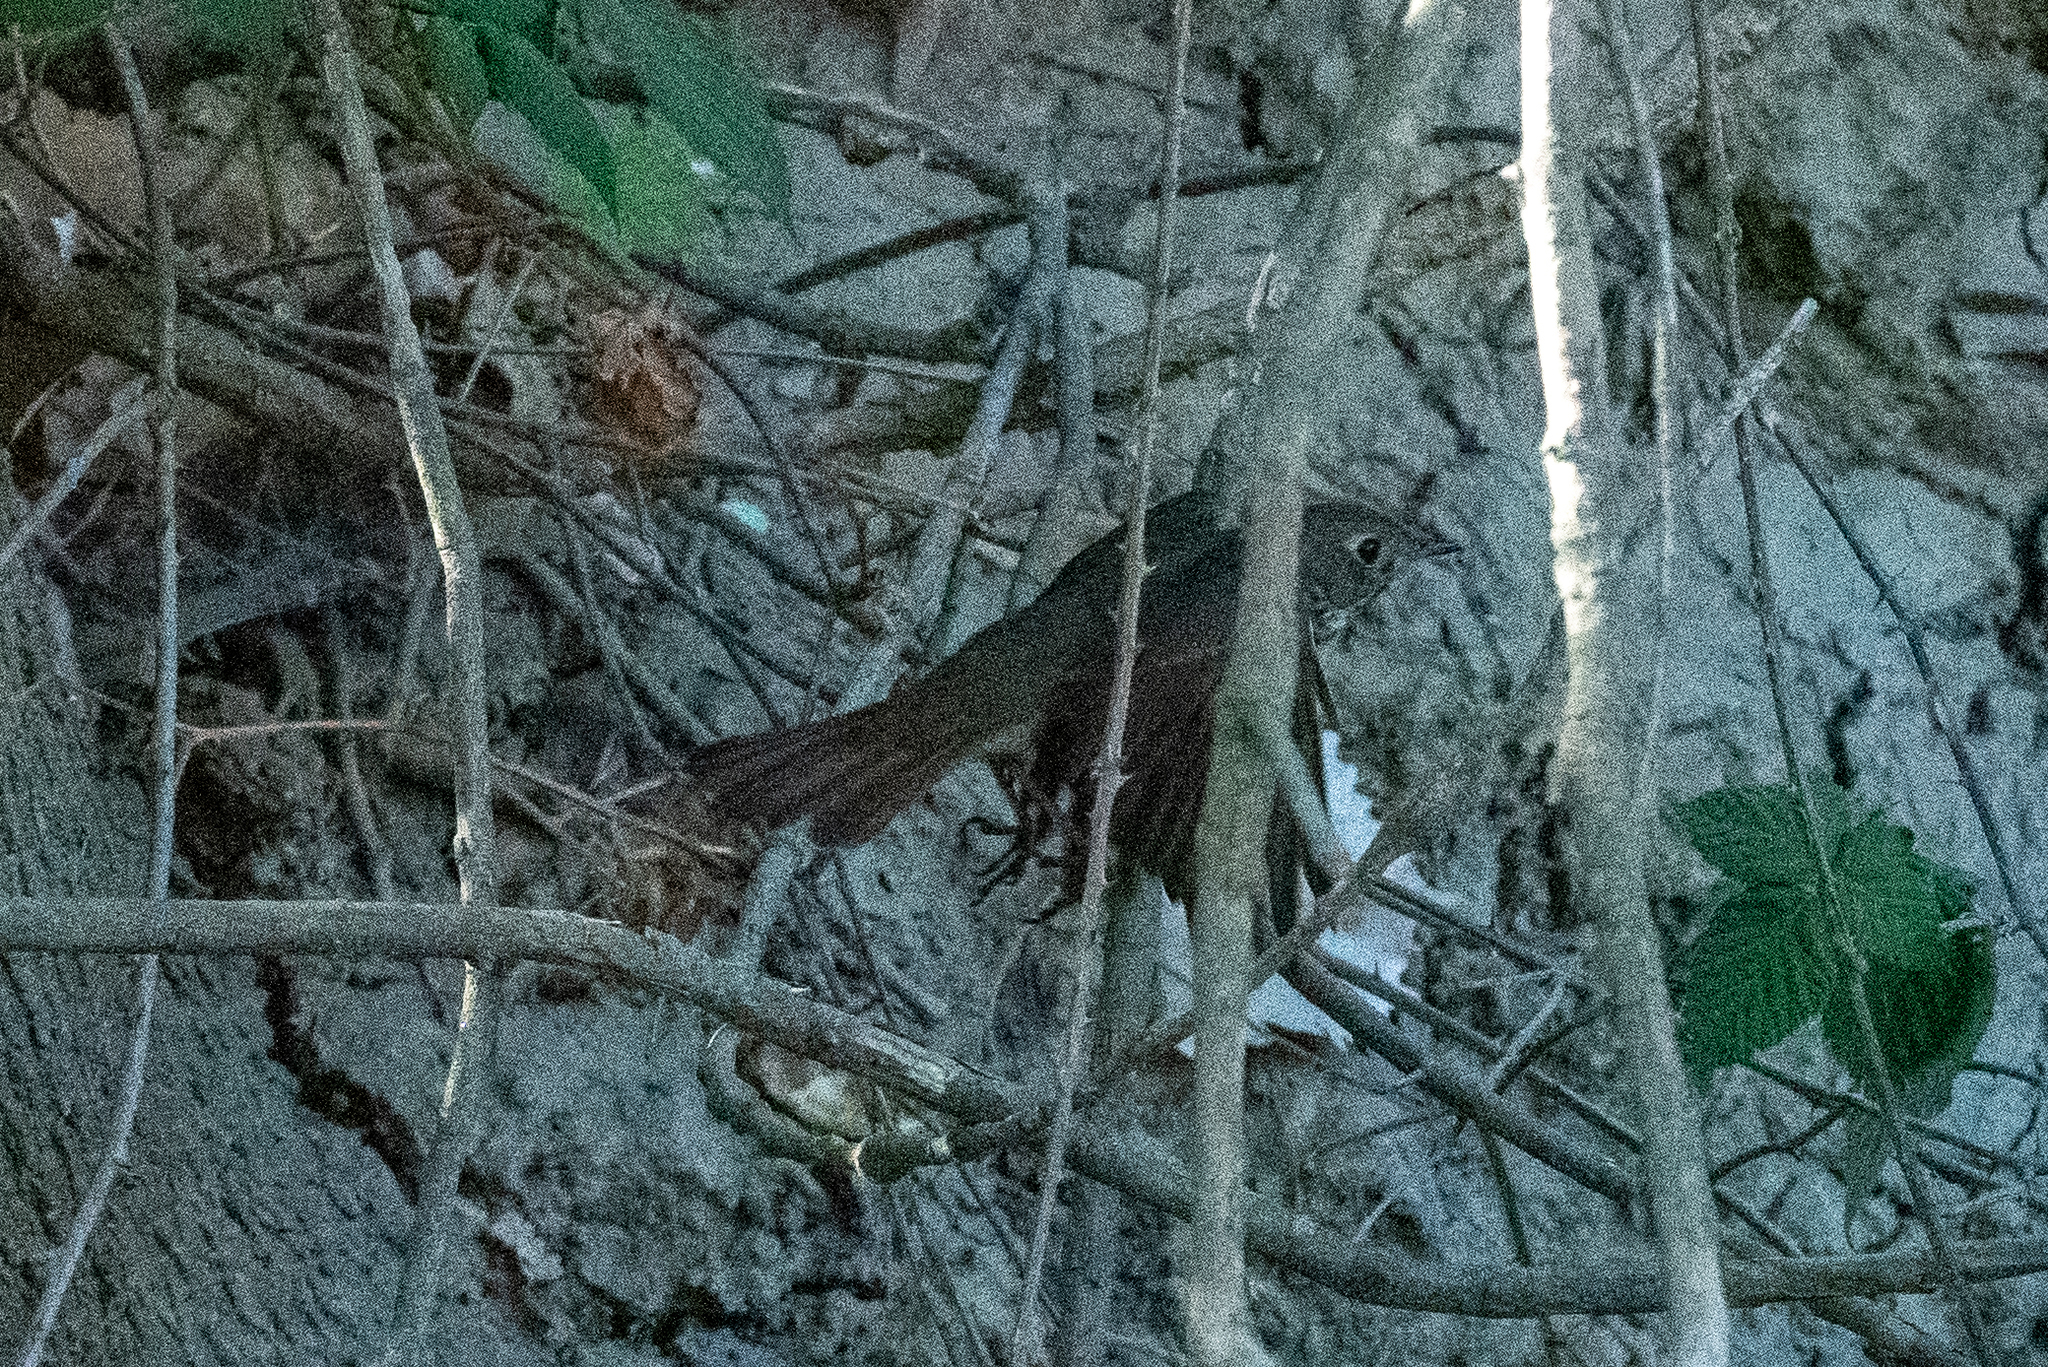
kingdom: Animalia
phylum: Chordata
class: Aves
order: Passeriformes
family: Turdidae
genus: Catharus
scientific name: Catharus guttatus
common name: Hermit thrush
